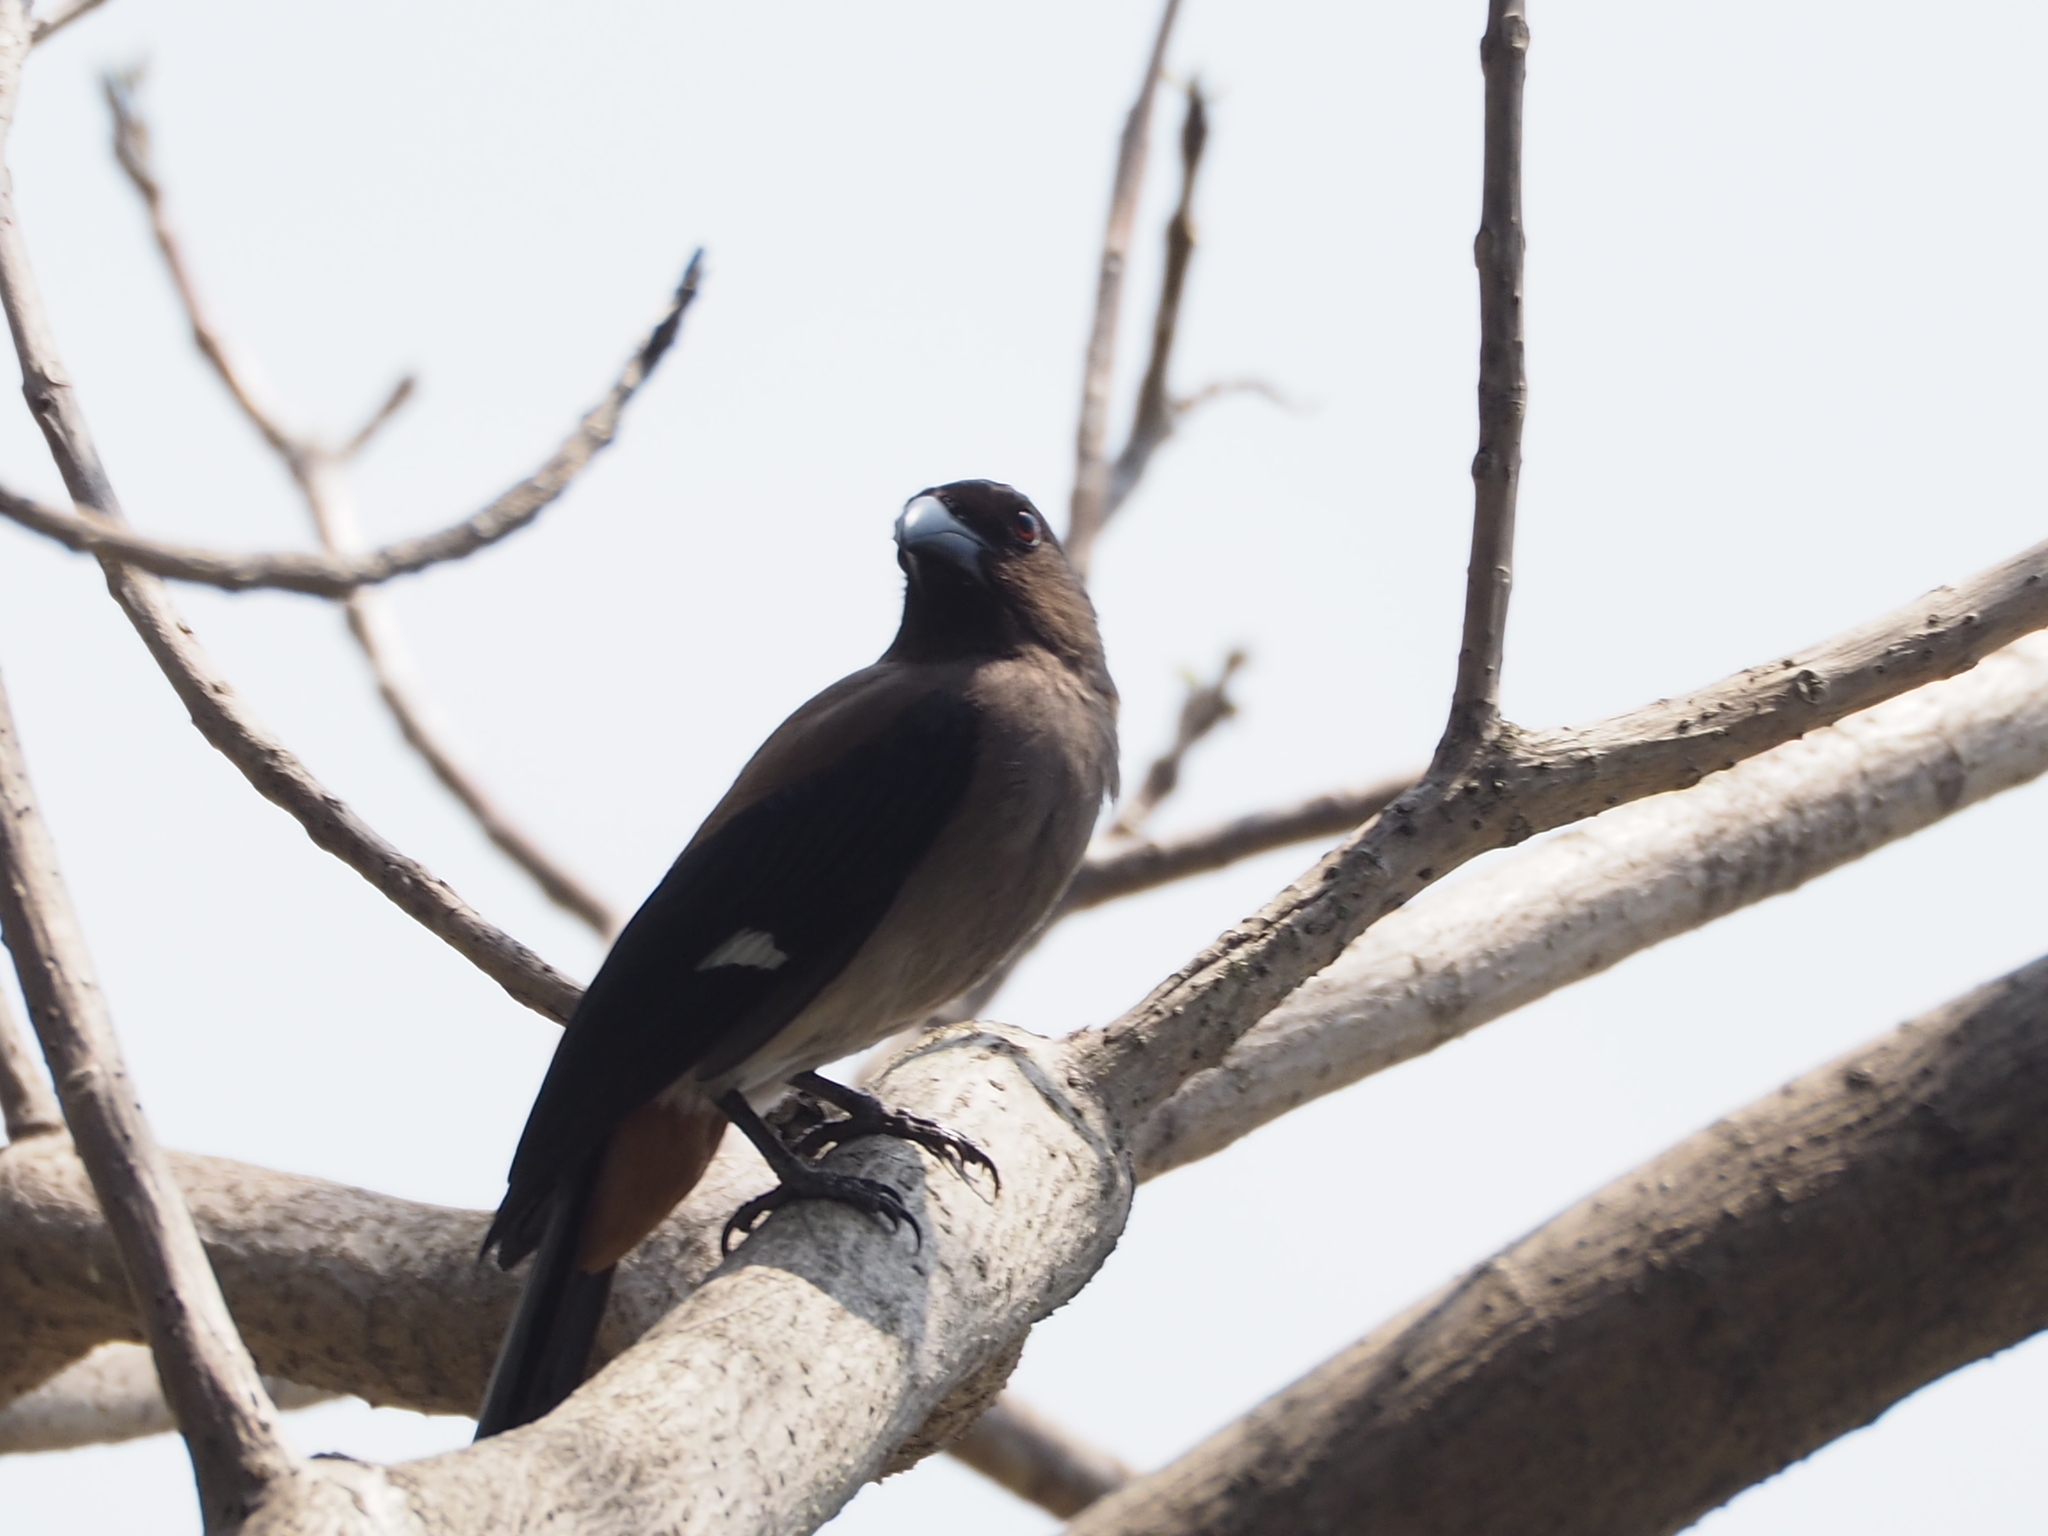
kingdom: Animalia
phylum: Chordata
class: Aves
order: Passeriformes
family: Corvidae
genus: Dendrocitta
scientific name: Dendrocitta formosae
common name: Grey treepie
